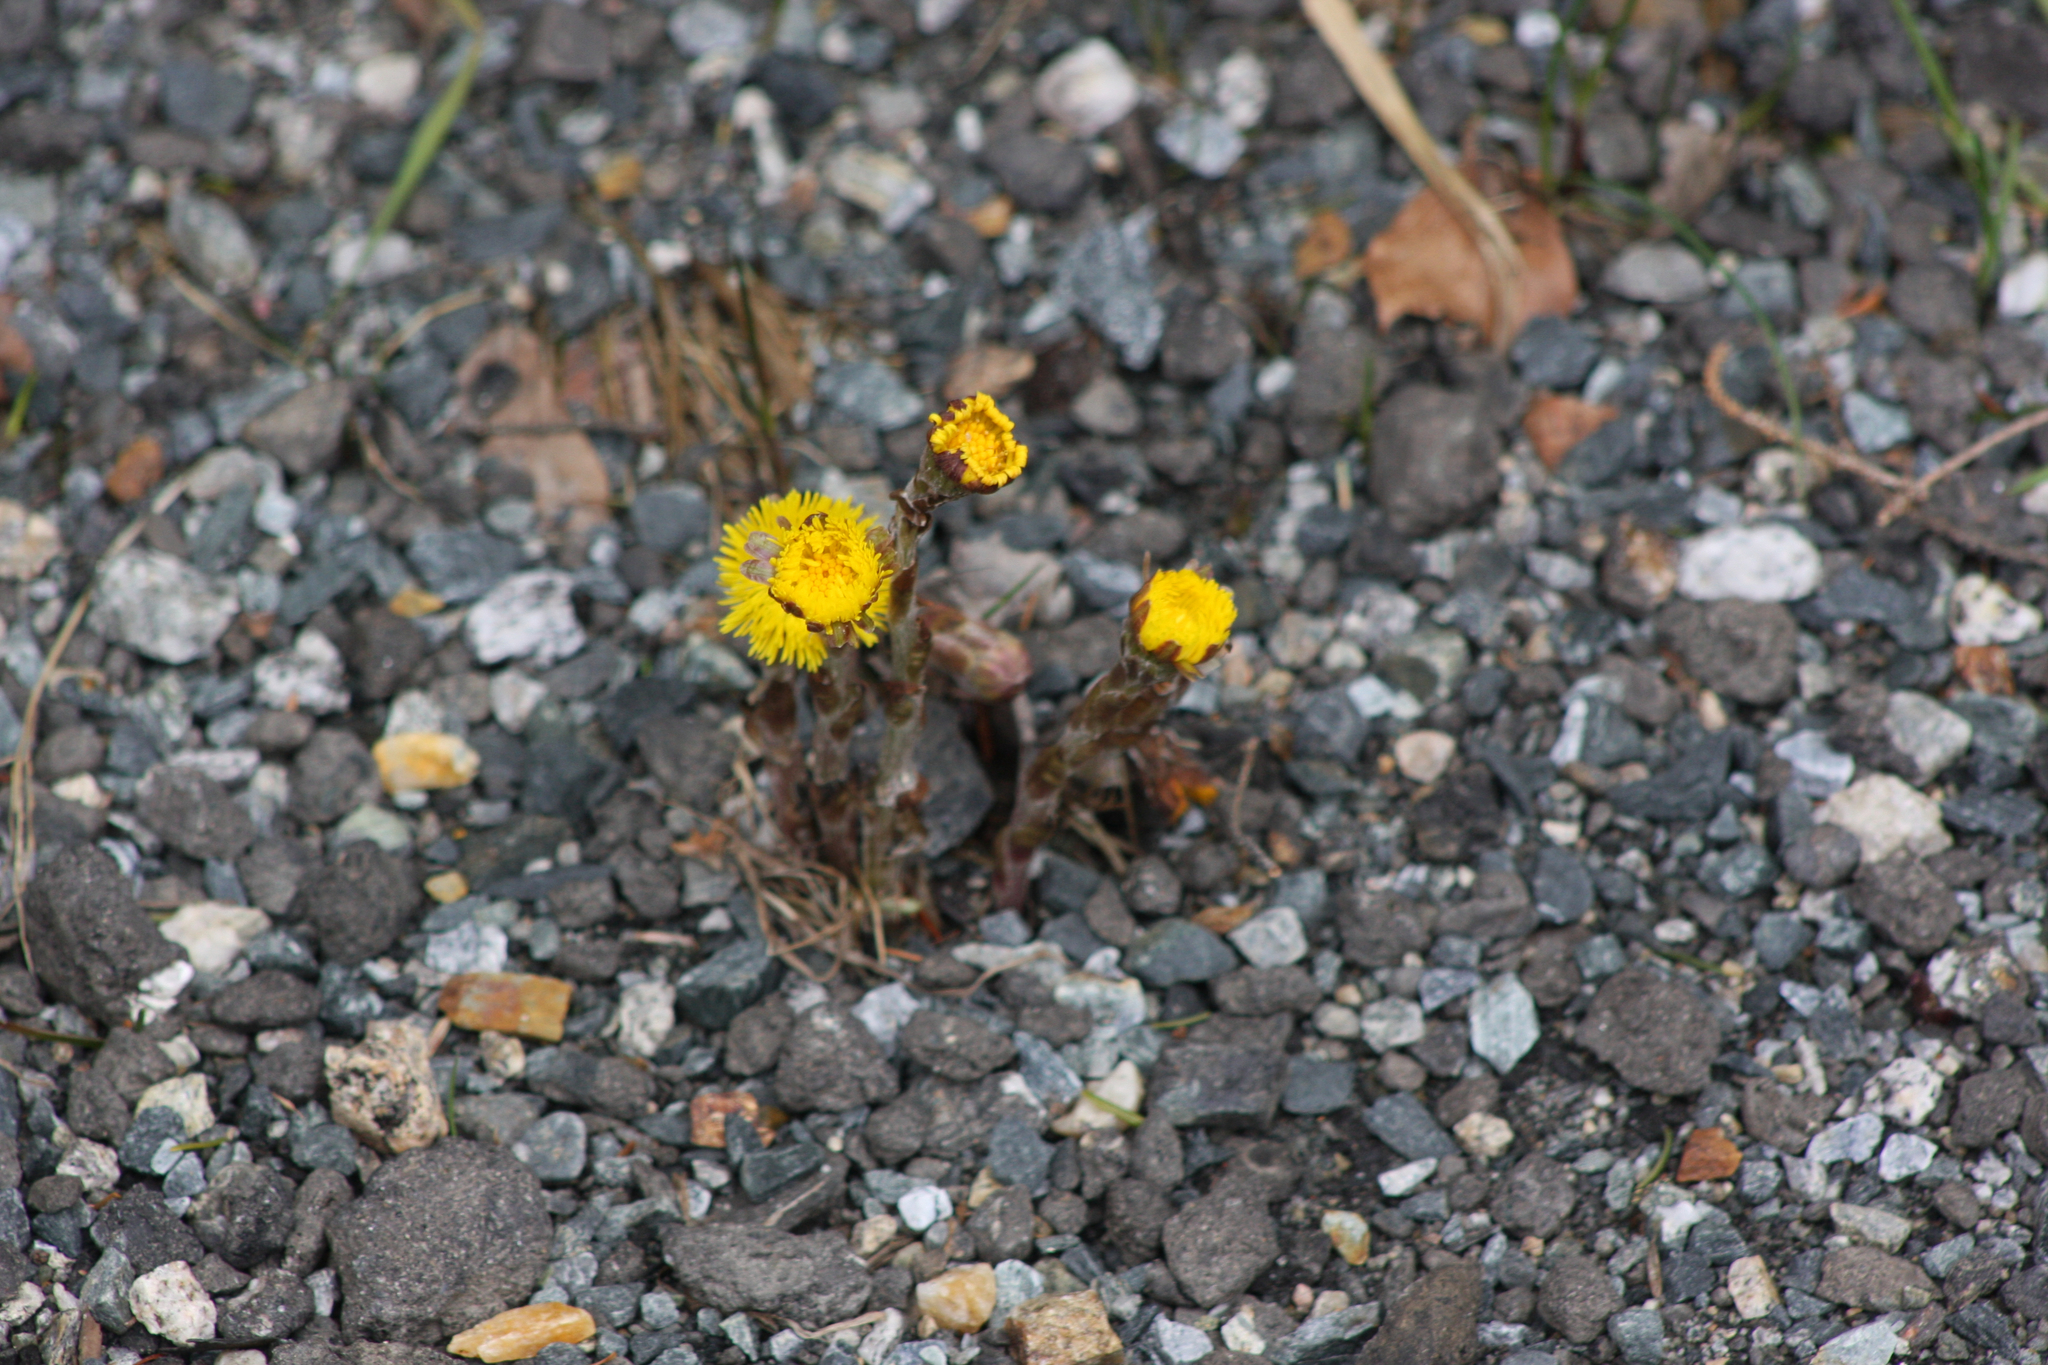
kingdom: Plantae
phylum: Tracheophyta
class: Magnoliopsida
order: Asterales
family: Asteraceae
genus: Tussilago
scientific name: Tussilago farfara
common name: Coltsfoot
